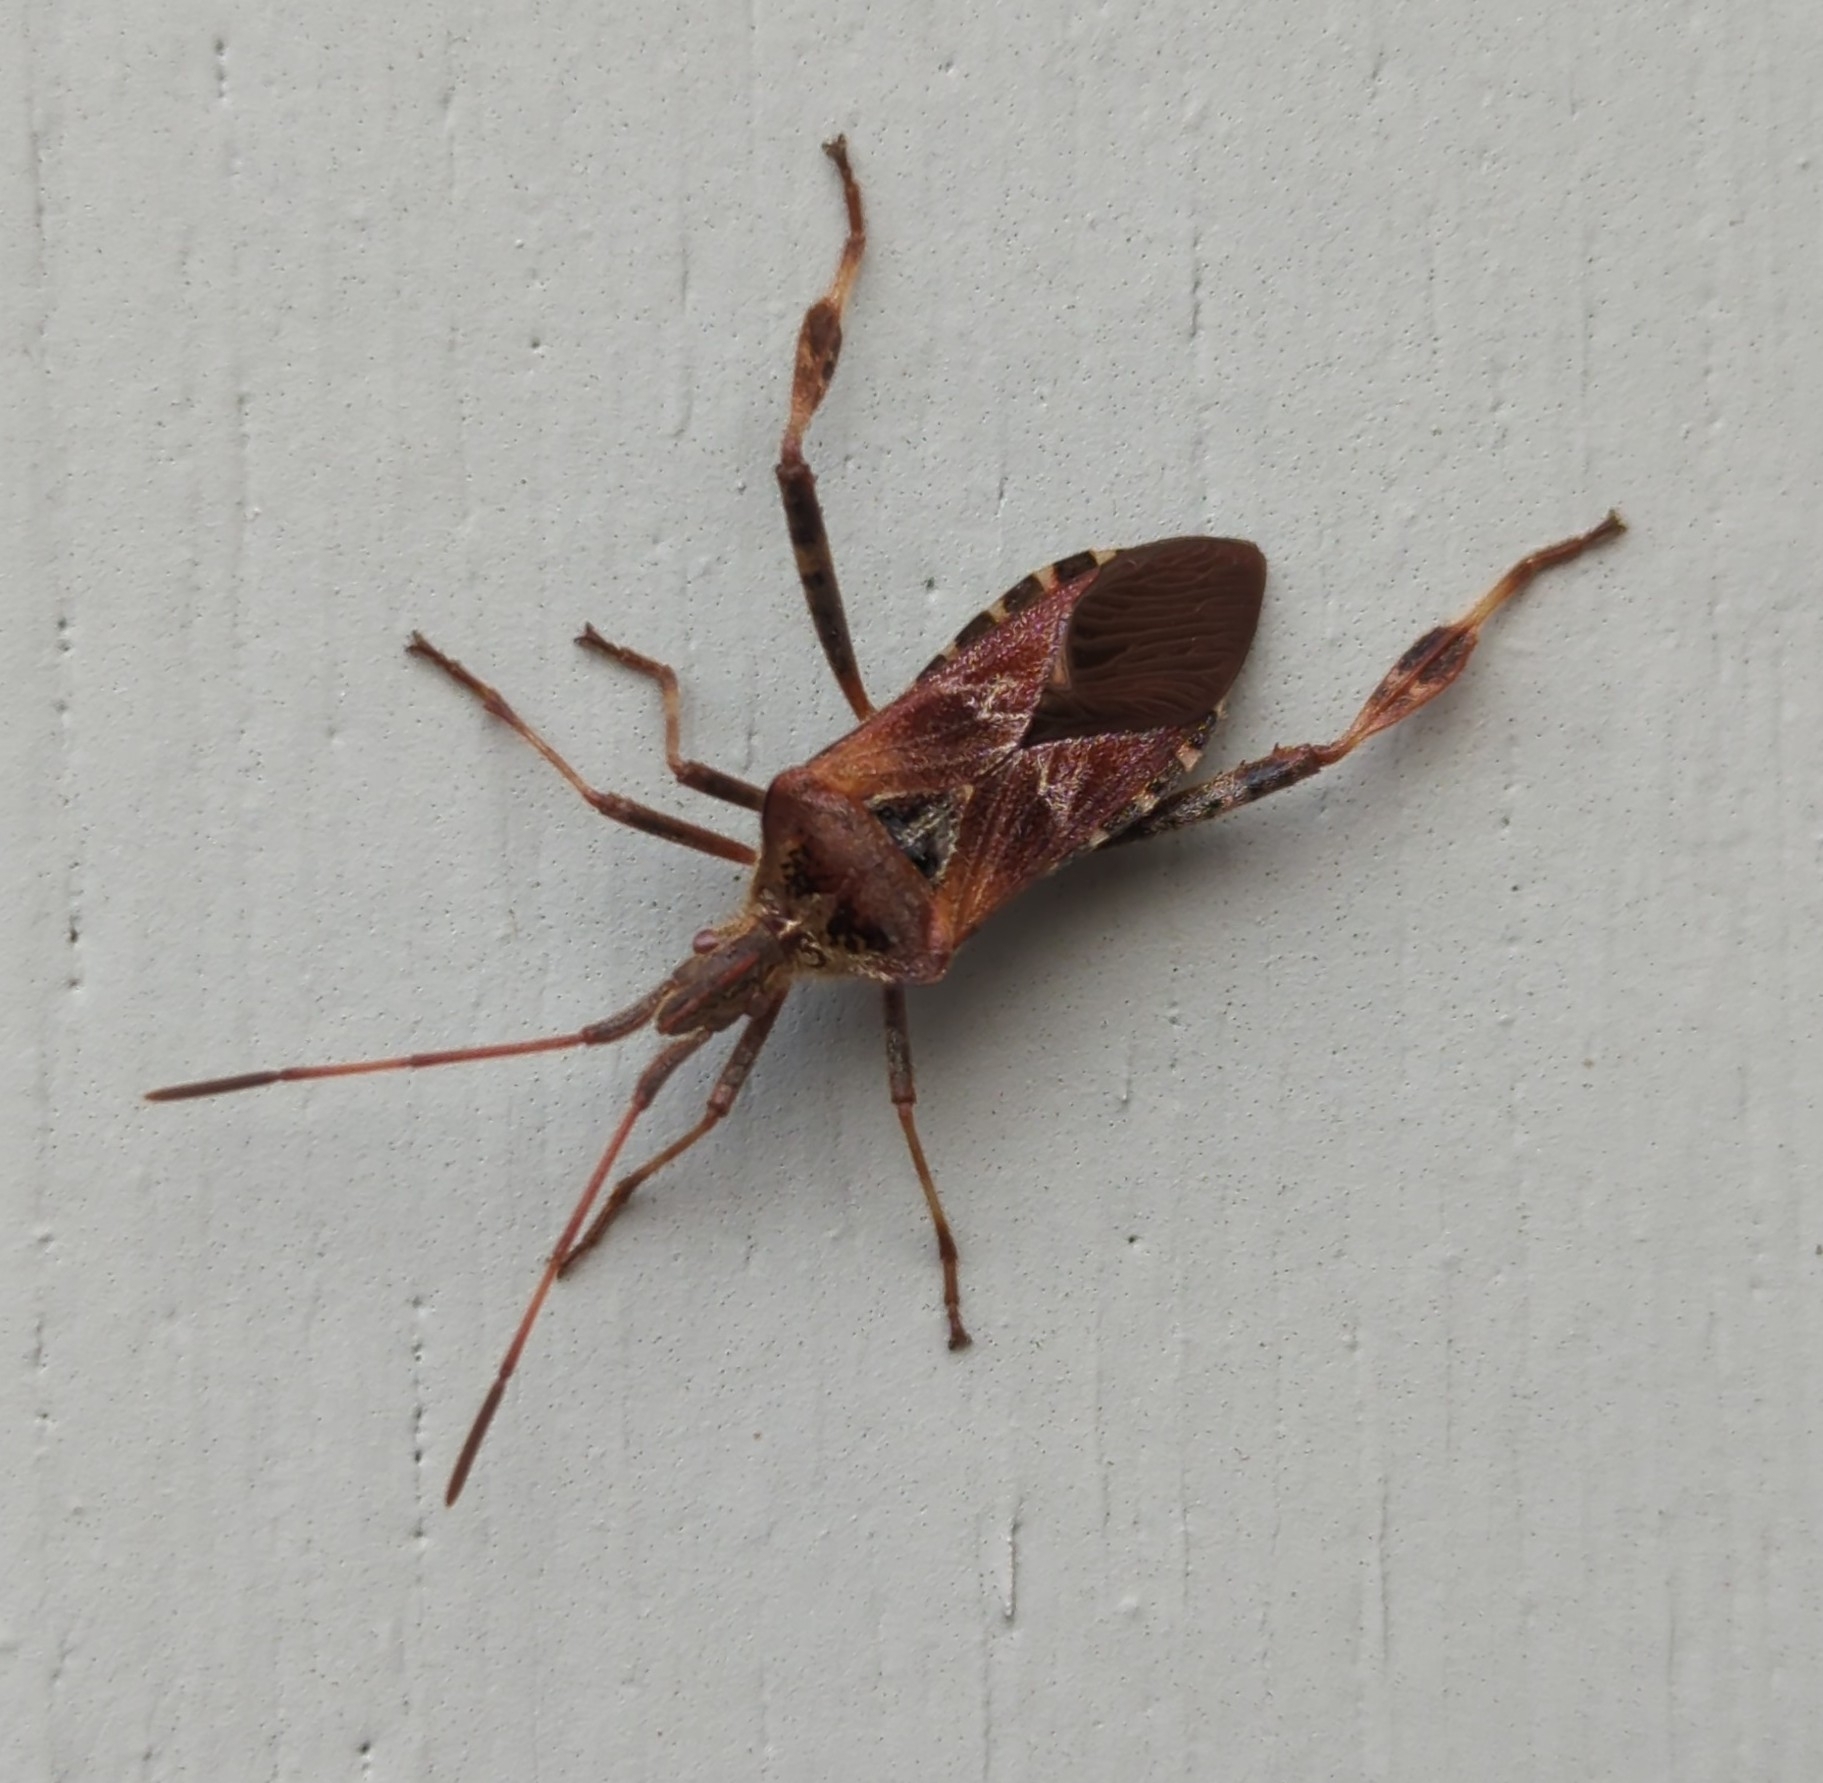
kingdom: Animalia
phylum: Arthropoda
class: Insecta
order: Hemiptera
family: Coreidae
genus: Leptoglossus
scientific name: Leptoglossus occidentalis
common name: Western conifer-seed bug
